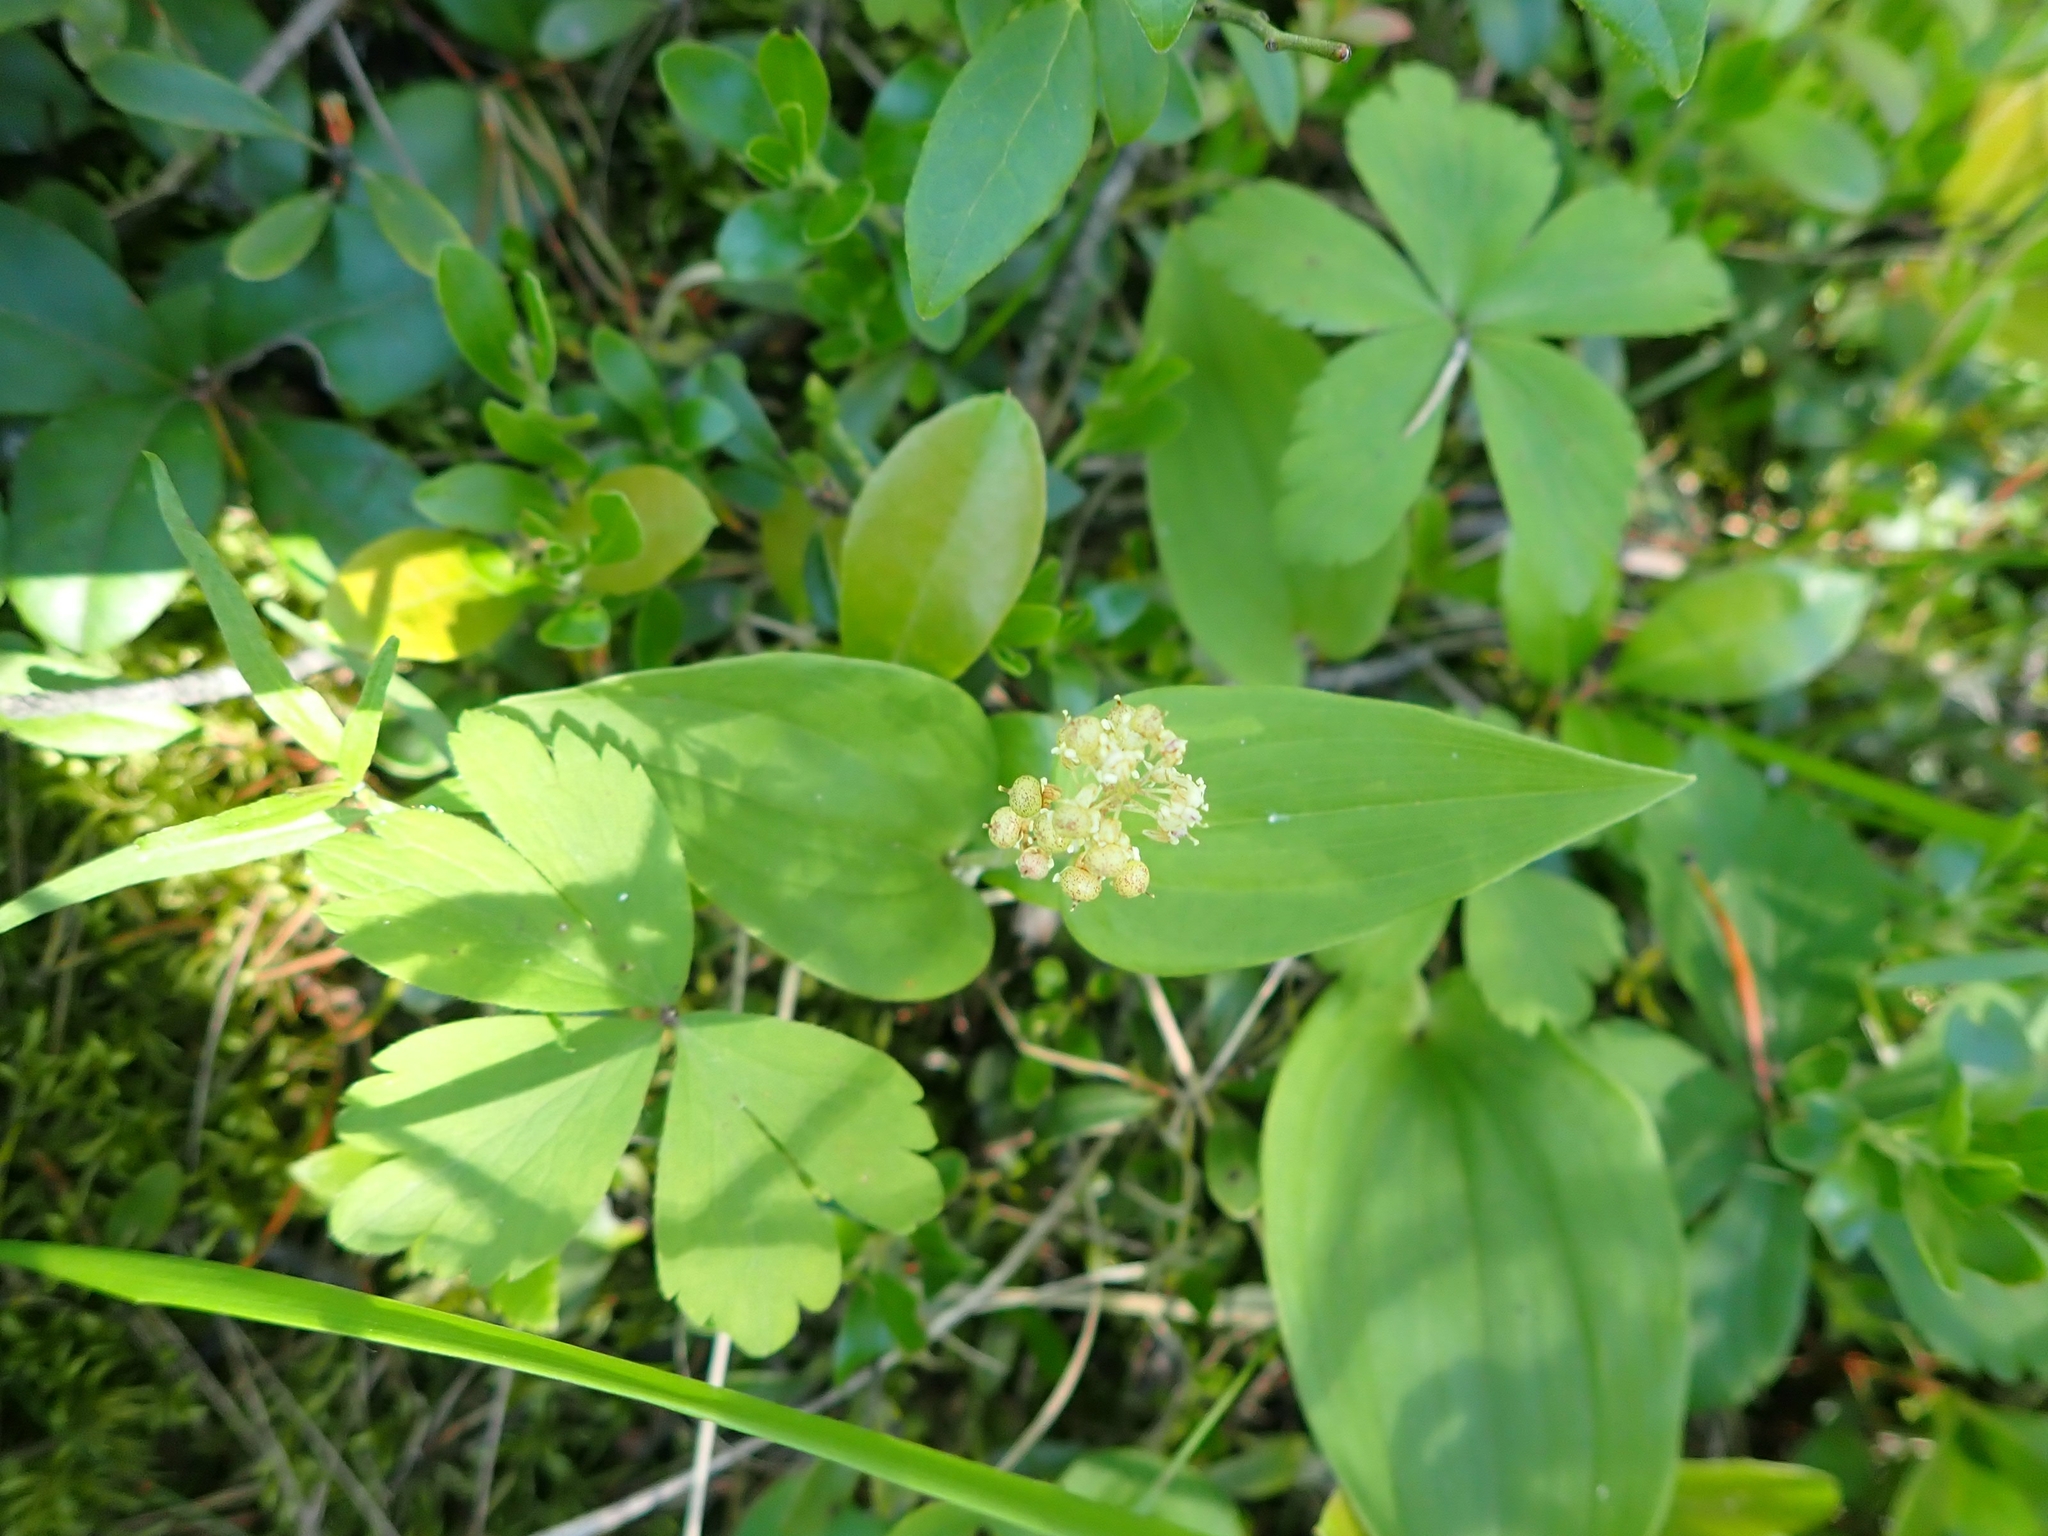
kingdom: Plantae
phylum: Tracheophyta
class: Liliopsida
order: Asparagales
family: Asparagaceae
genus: Maianthemum
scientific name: Maianthemum canadense
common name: False lily-of-the-valley
